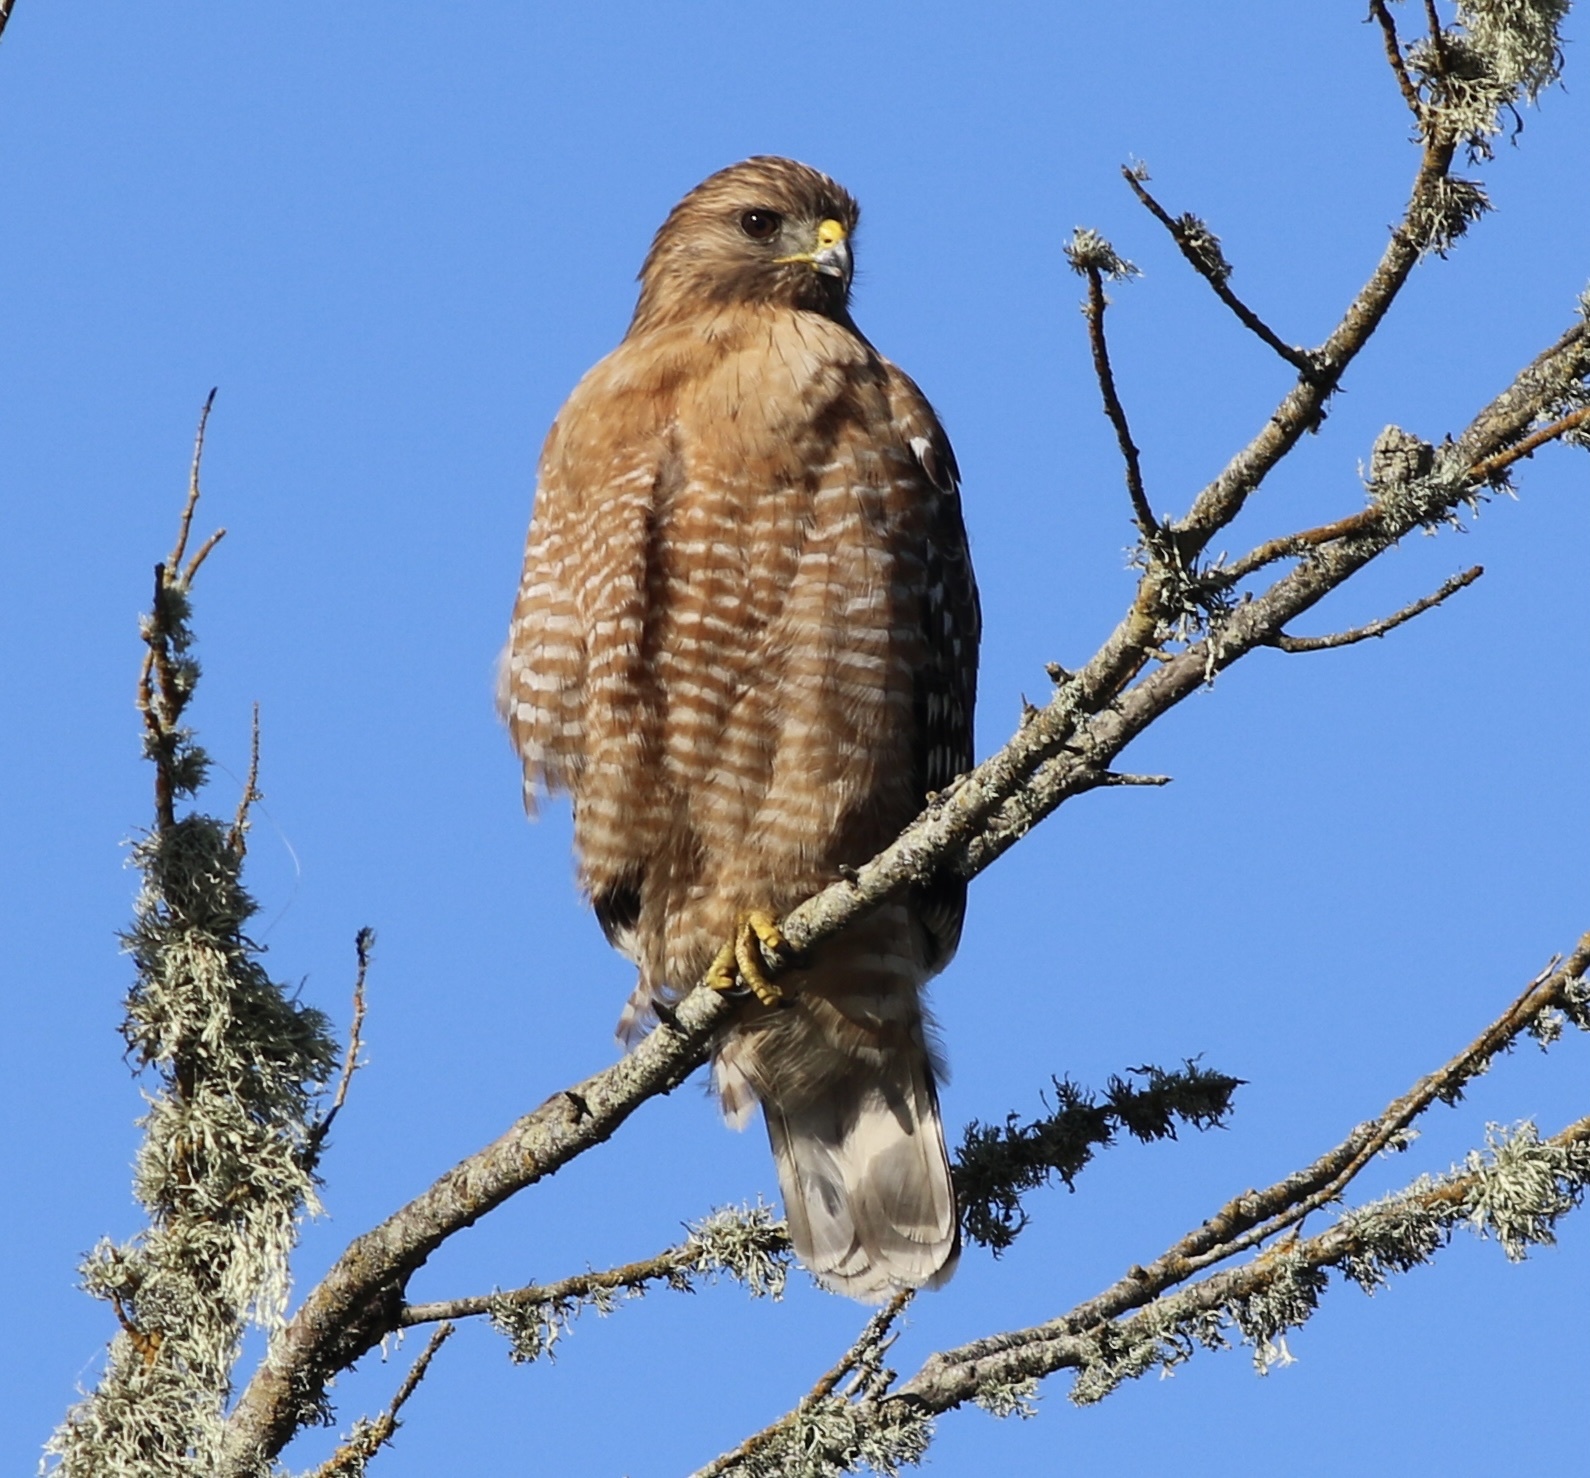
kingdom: Animalia
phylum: Chordata
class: Aves
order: Accipitriformes
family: Accipitridae
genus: Buteo
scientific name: Buteo lineatus
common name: Red-shouldered hawk
